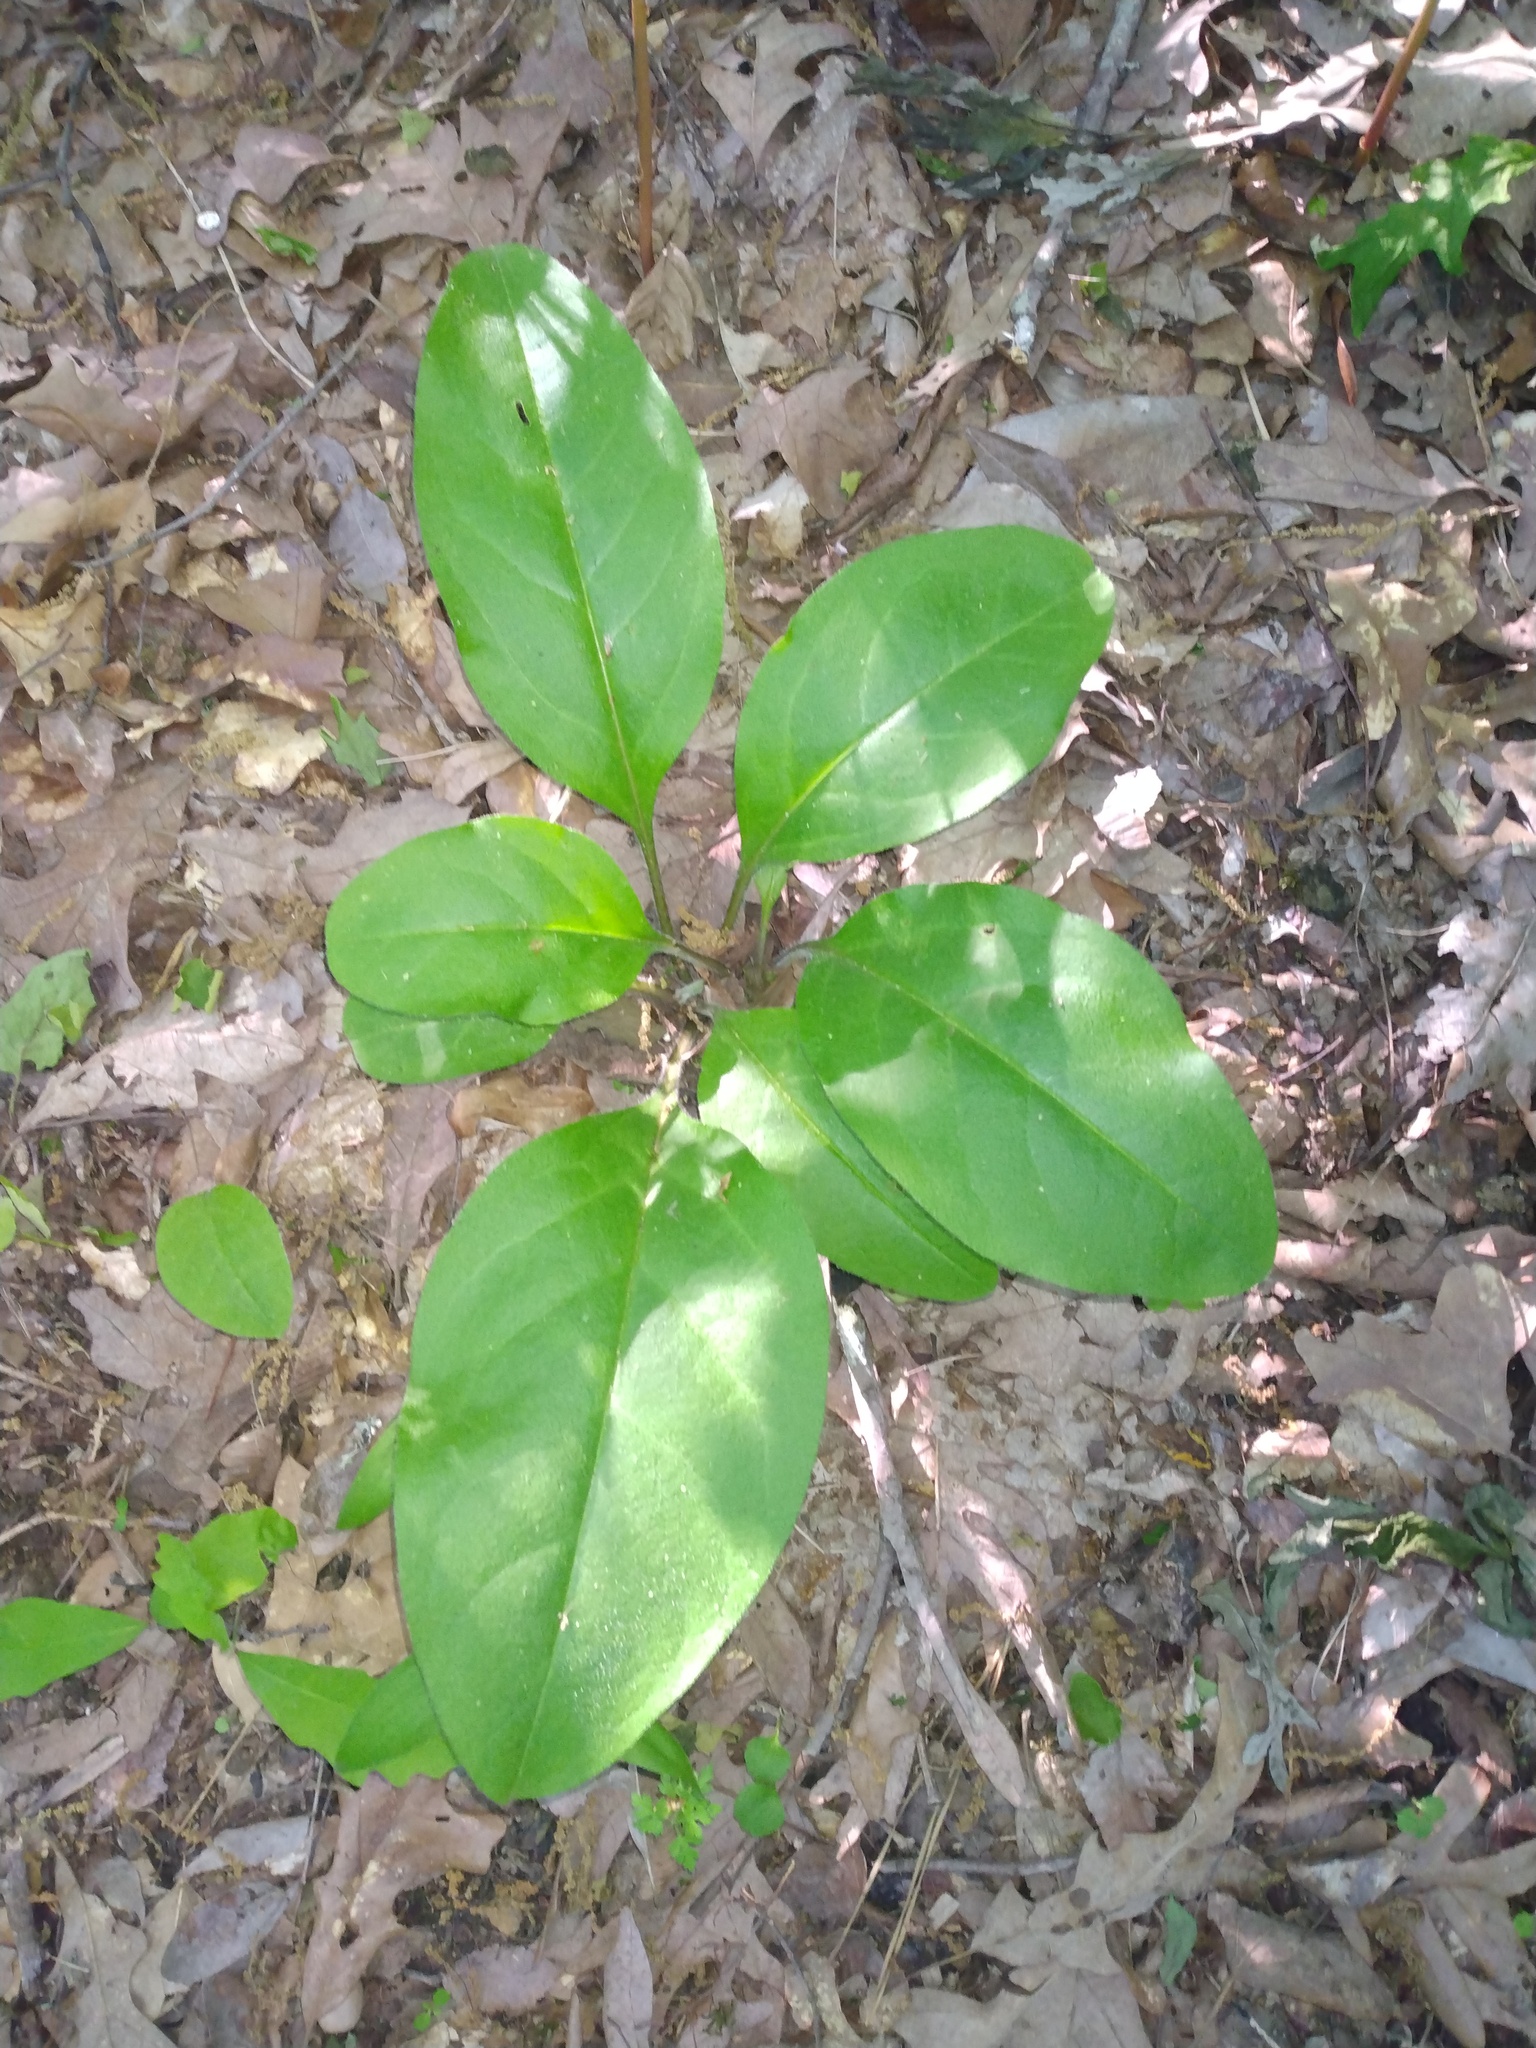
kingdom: Plantae
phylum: Tracheophyta
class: Magnoliopsida
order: Boraginales
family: Boraginaceae
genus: Andersonglossum
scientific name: Andersonglossum virginianum
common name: Wild comfrey
